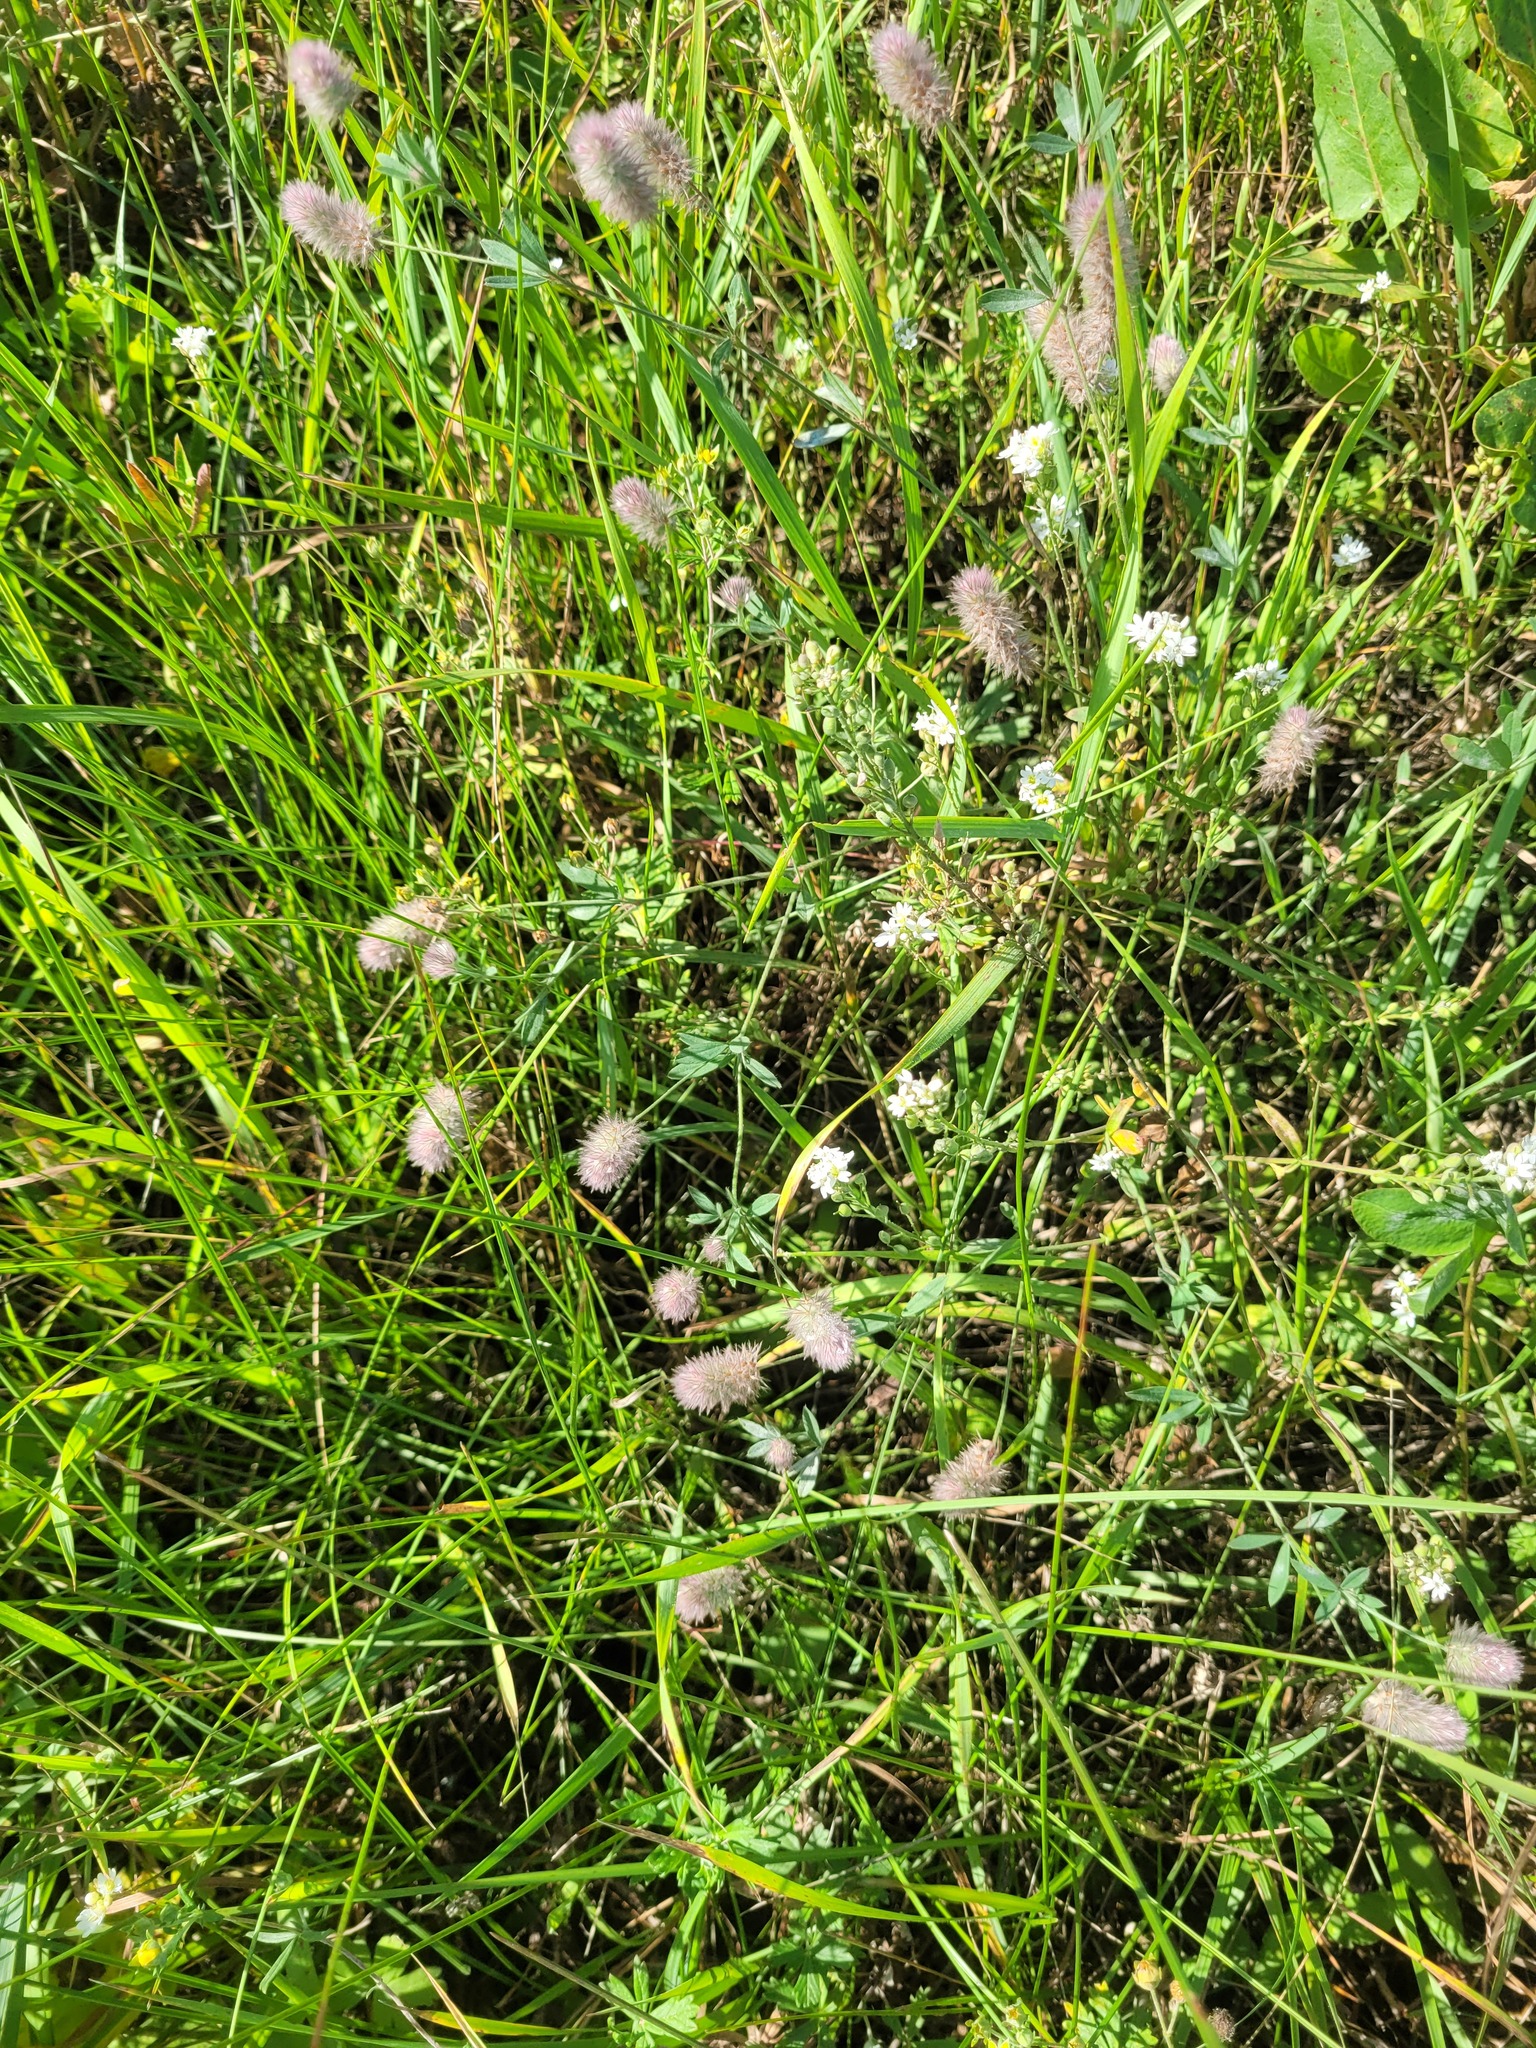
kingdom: Plantae
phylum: Tracheophyta
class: Magnoliopsida
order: Fabales
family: Fabaceae
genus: Trifolium
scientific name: Trifolium arvense
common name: Hare's-foot clover
